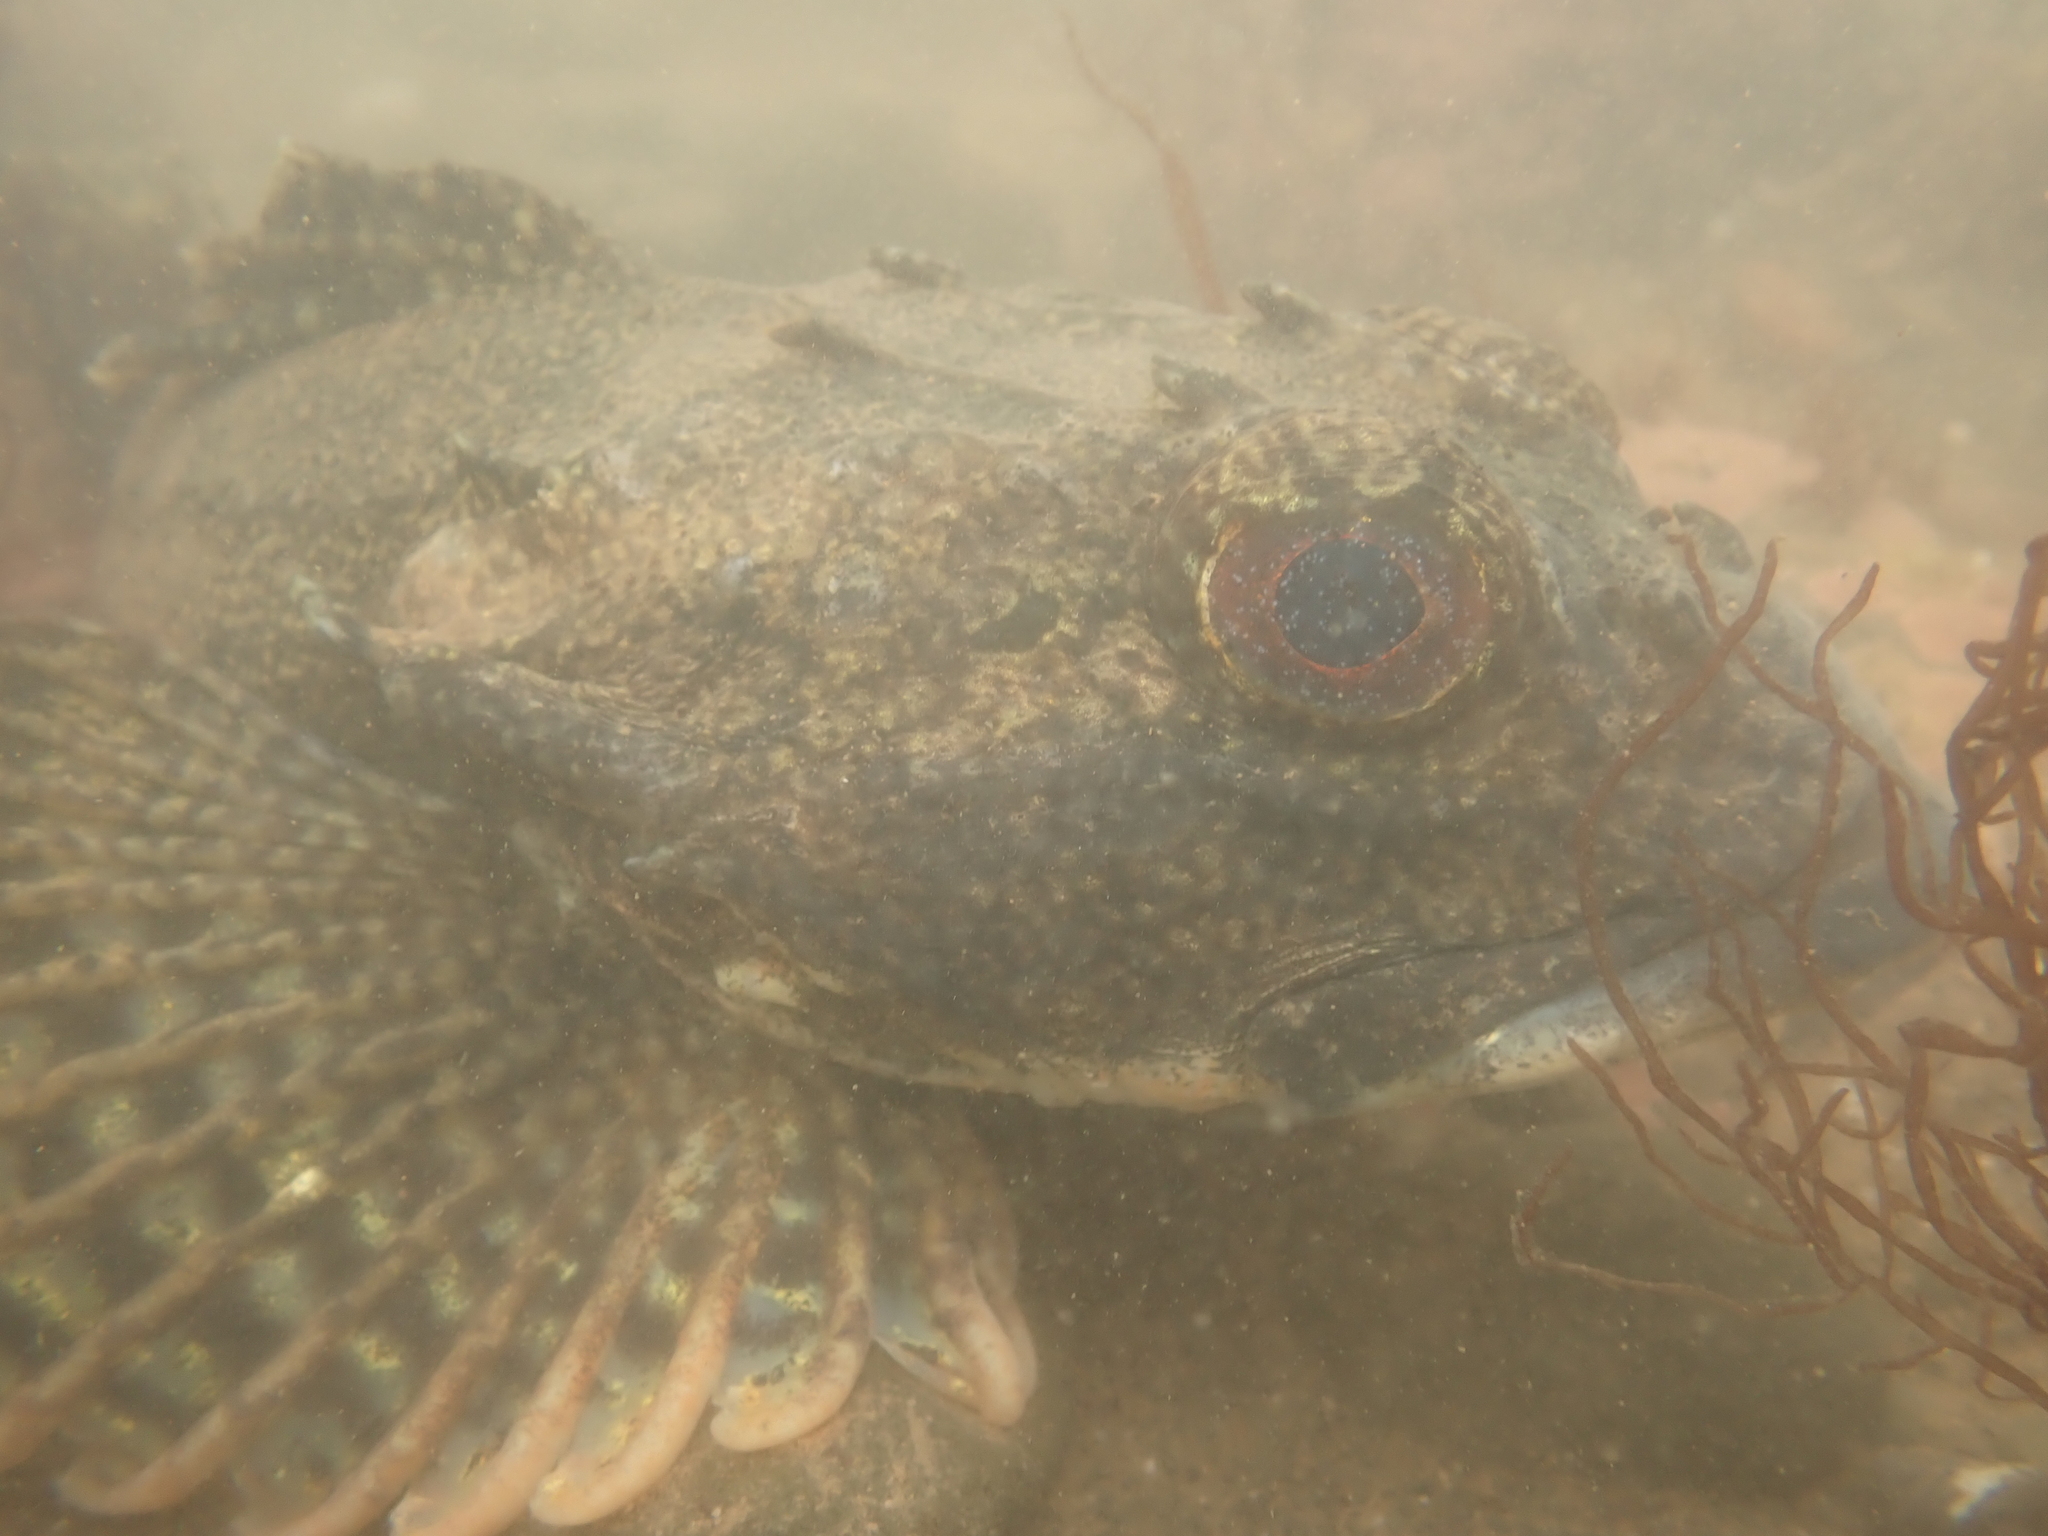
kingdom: Animalia
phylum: Chordata
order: Scorpaeniformes
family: Cottidae
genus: Myoxocephalus
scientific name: Myoxocephalus scorpius
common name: Shorthorn sculpin
